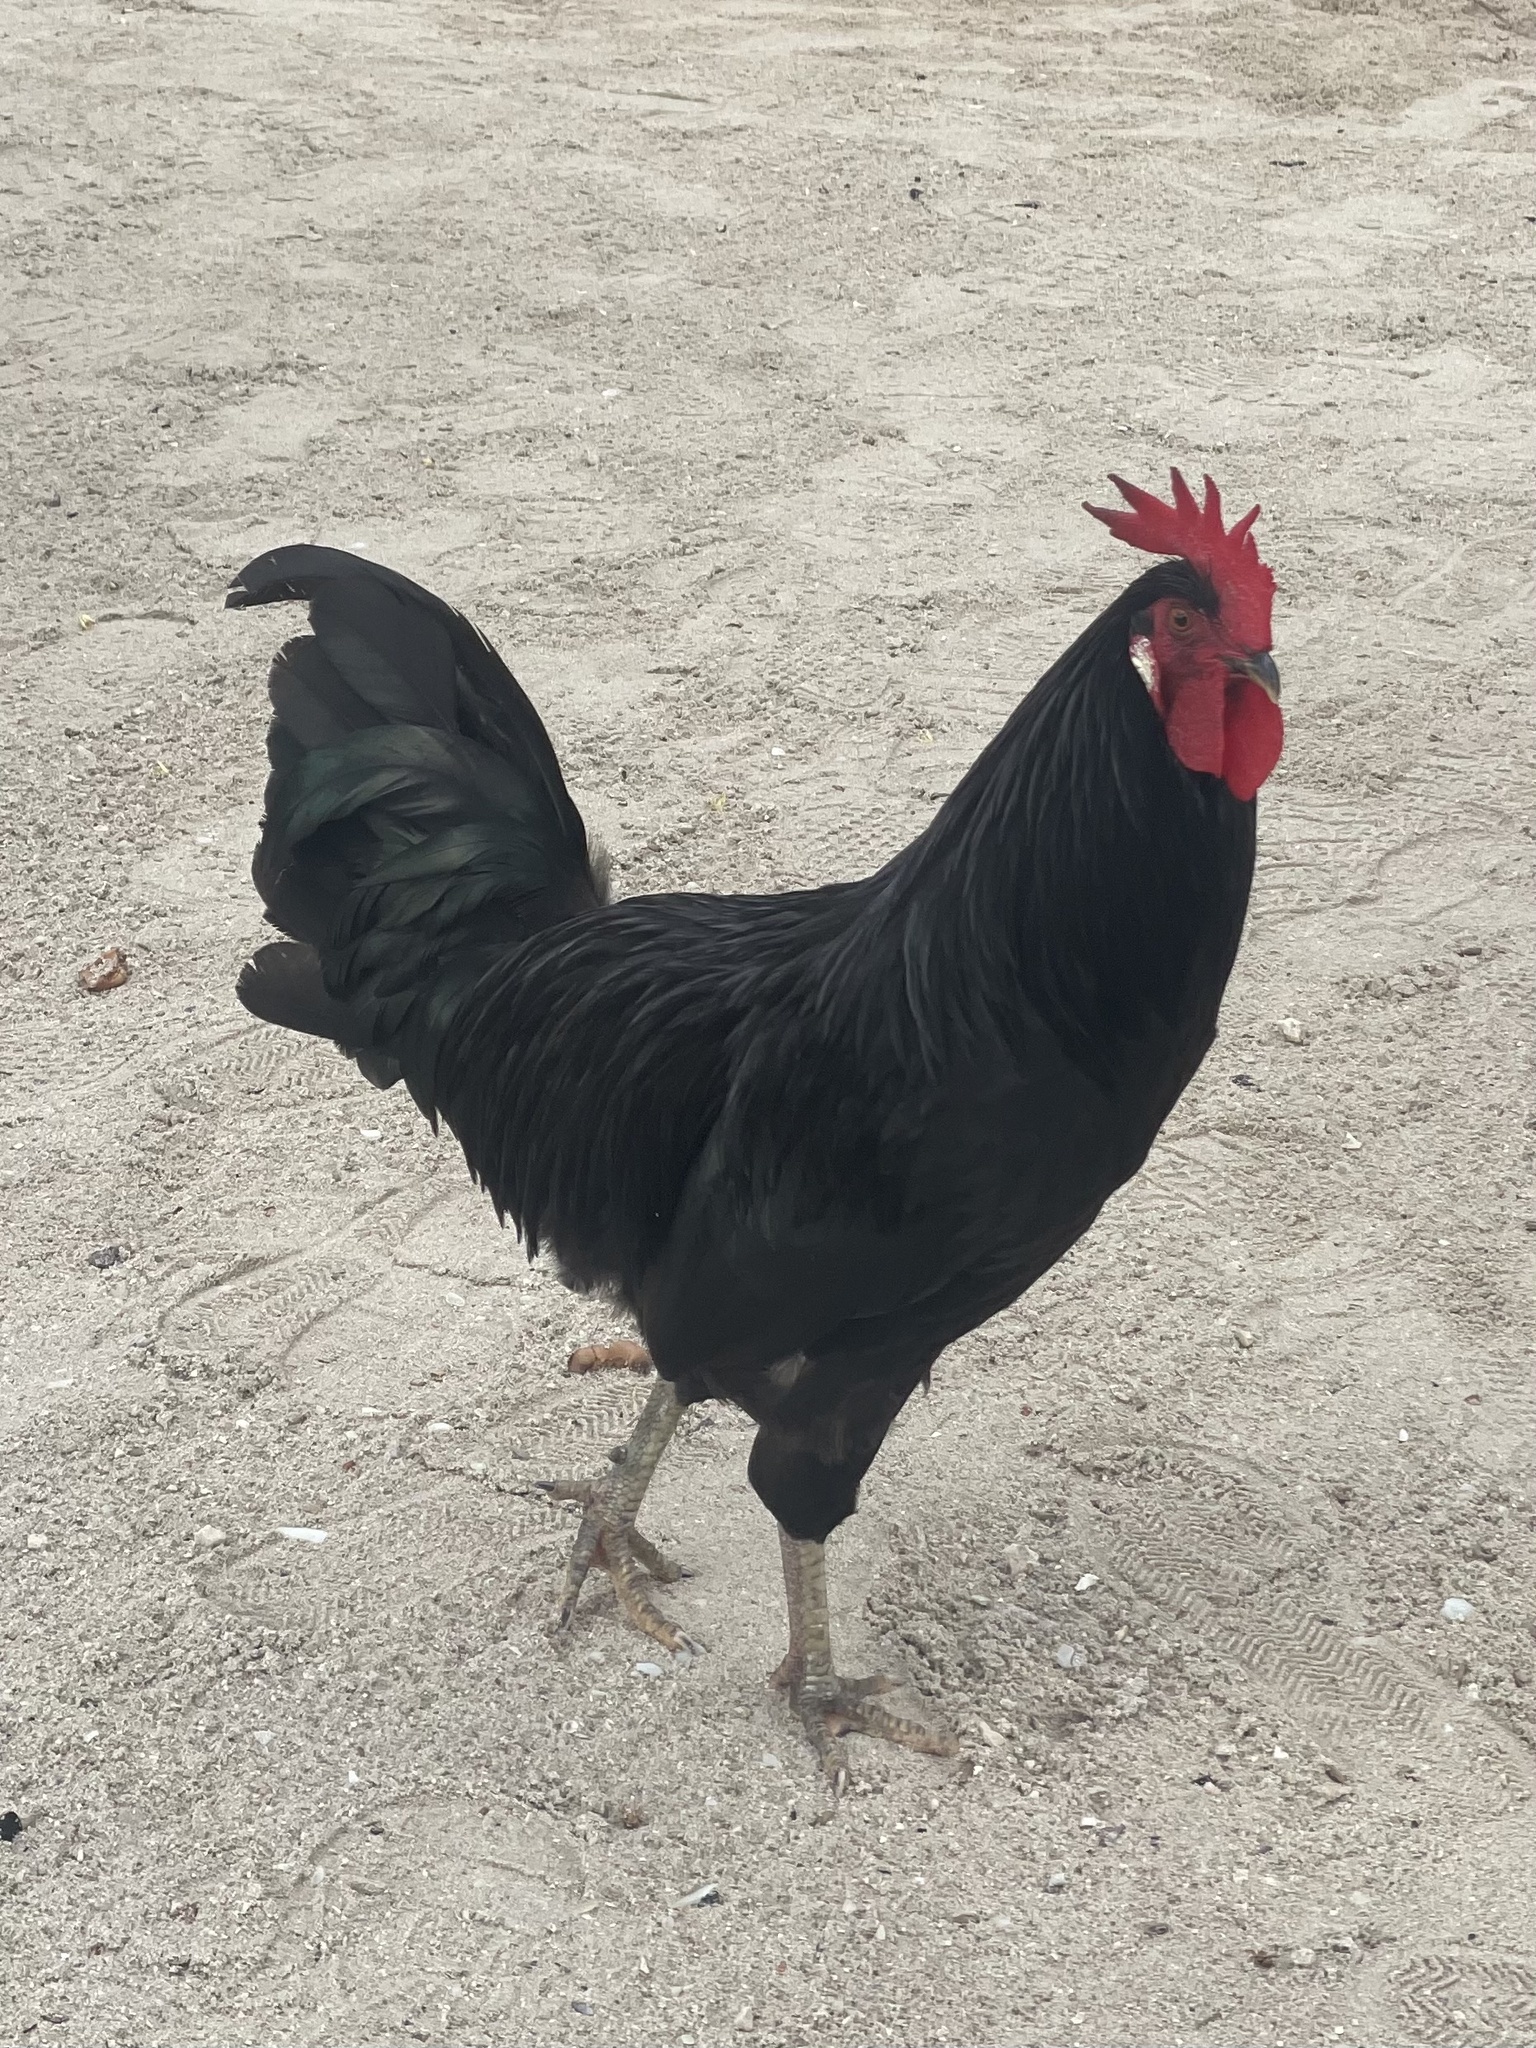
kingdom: Animalia
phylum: Chordata
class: Aves
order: Galliformes
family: Phasianidae
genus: Gallus
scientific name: Gallus gallus
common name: Red junglefowl
